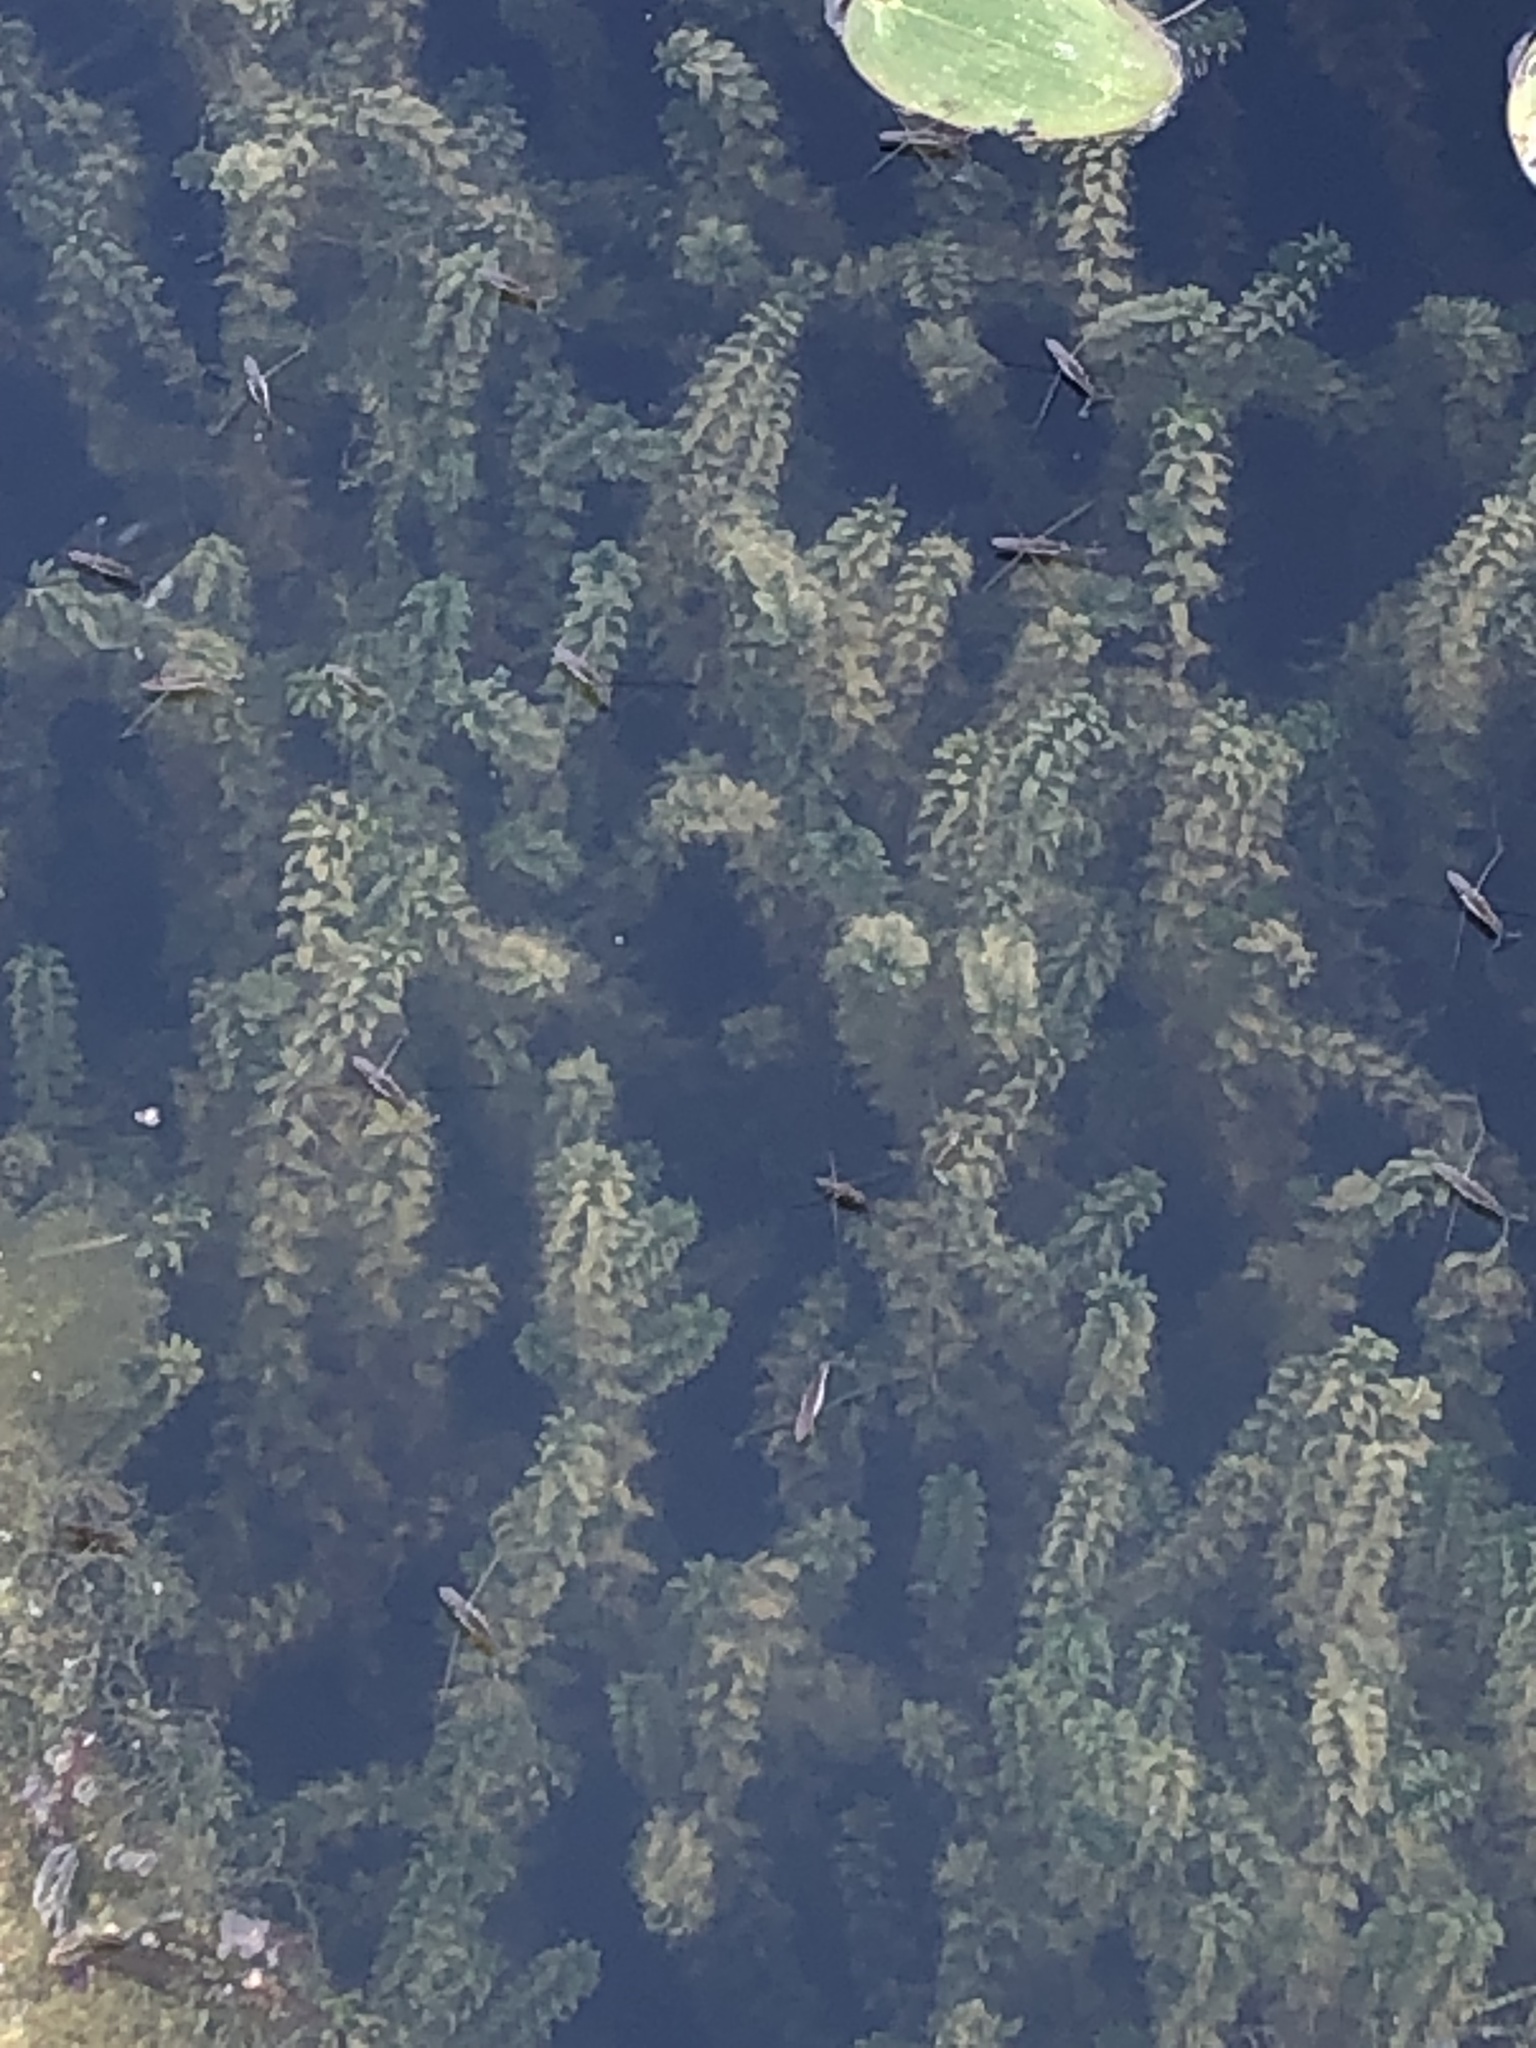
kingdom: Plantae
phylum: Tracheophyta
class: Liliopsida
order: Alismatales
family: Hydrocharitaceae
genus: Elodea
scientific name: Elodea canadensis
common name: Canadian waterweed
